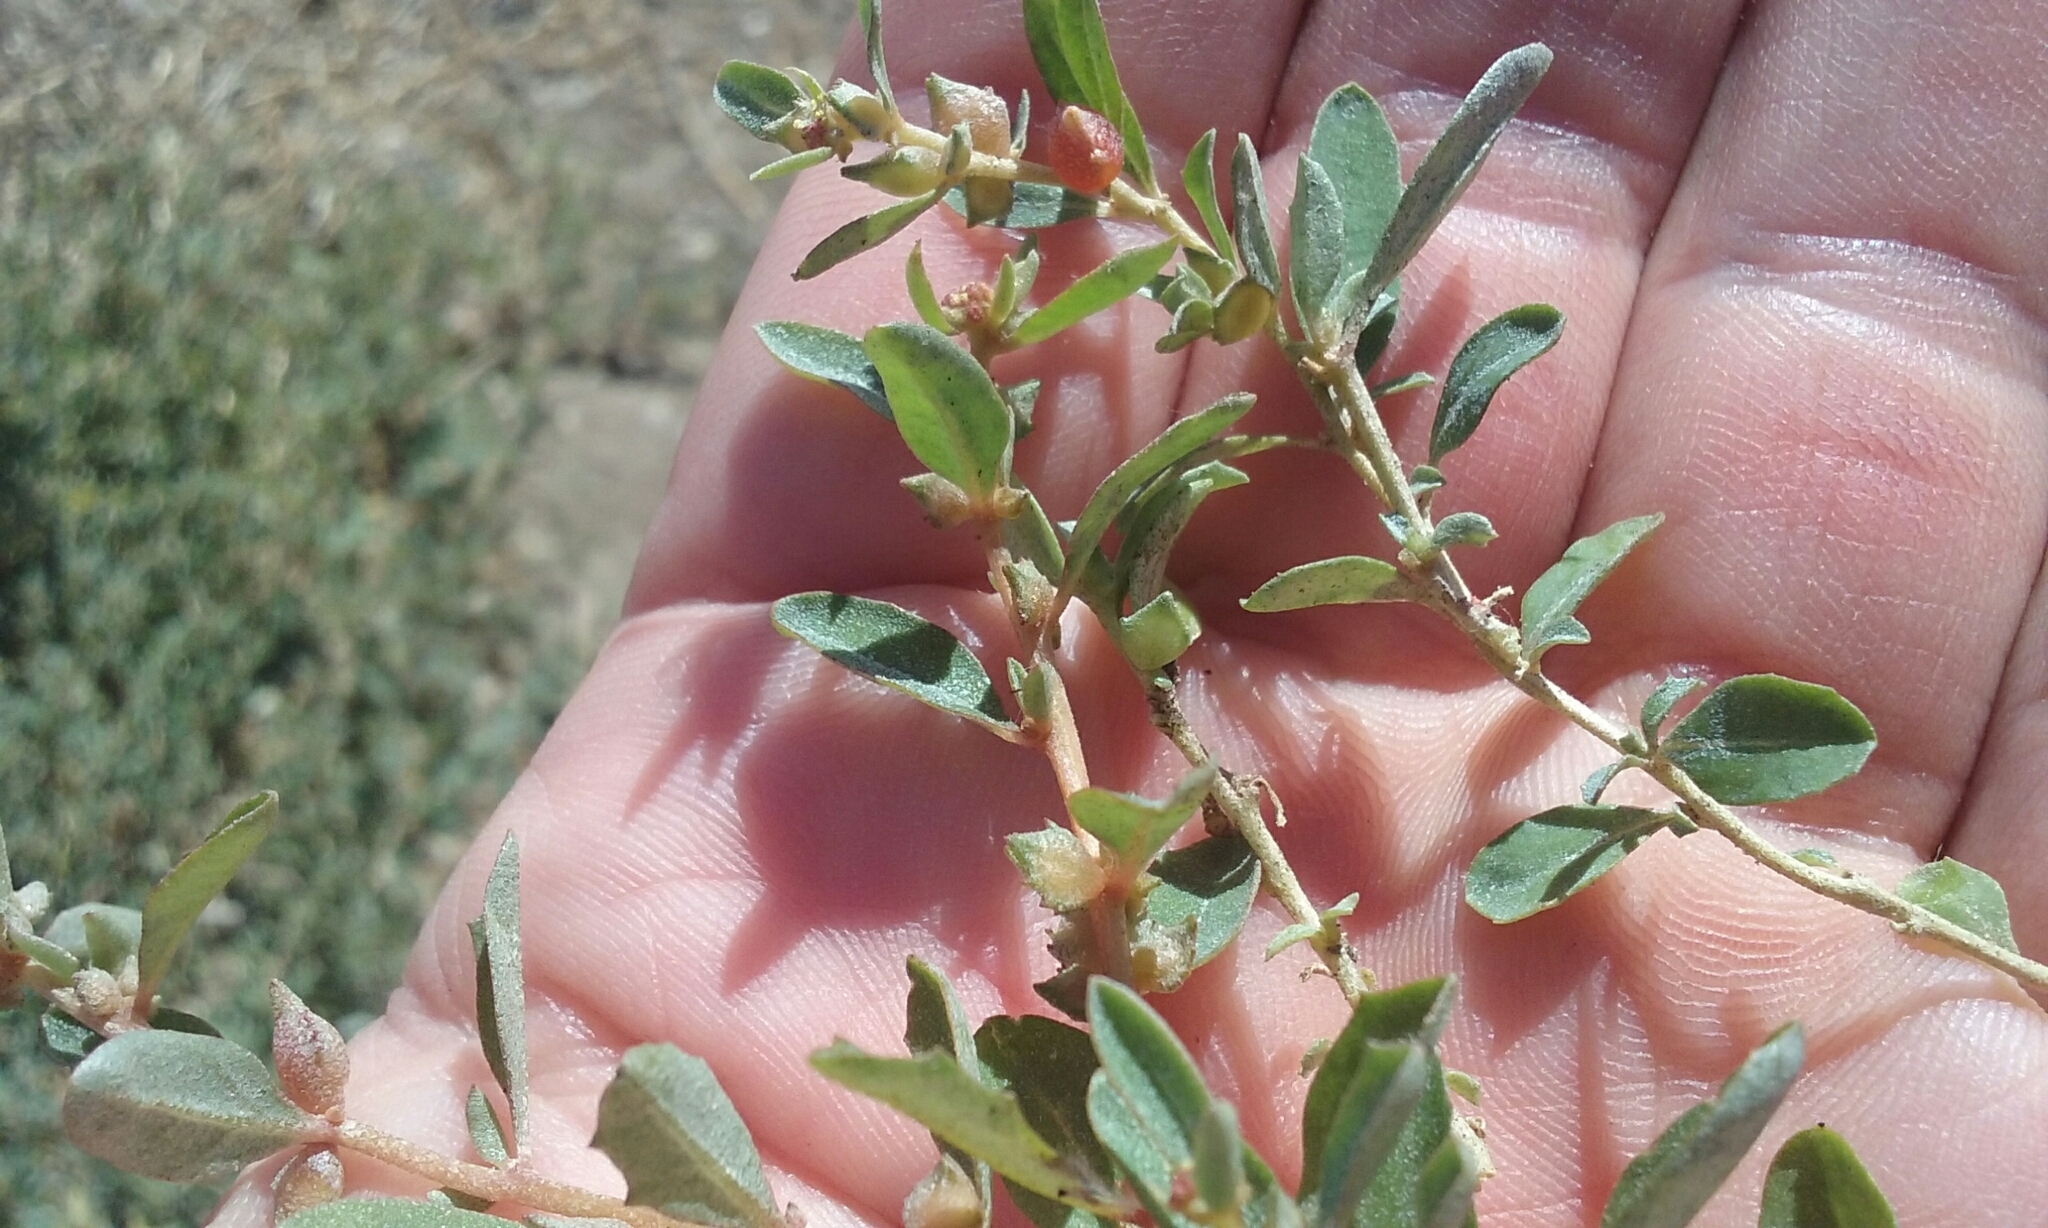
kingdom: Plantae
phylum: Tracheophyta
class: Magnoliopsida
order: Caryophyllales
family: Amaranthaceae
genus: Atriplex
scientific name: Atriplex semibaccata
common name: Australian saltbush
